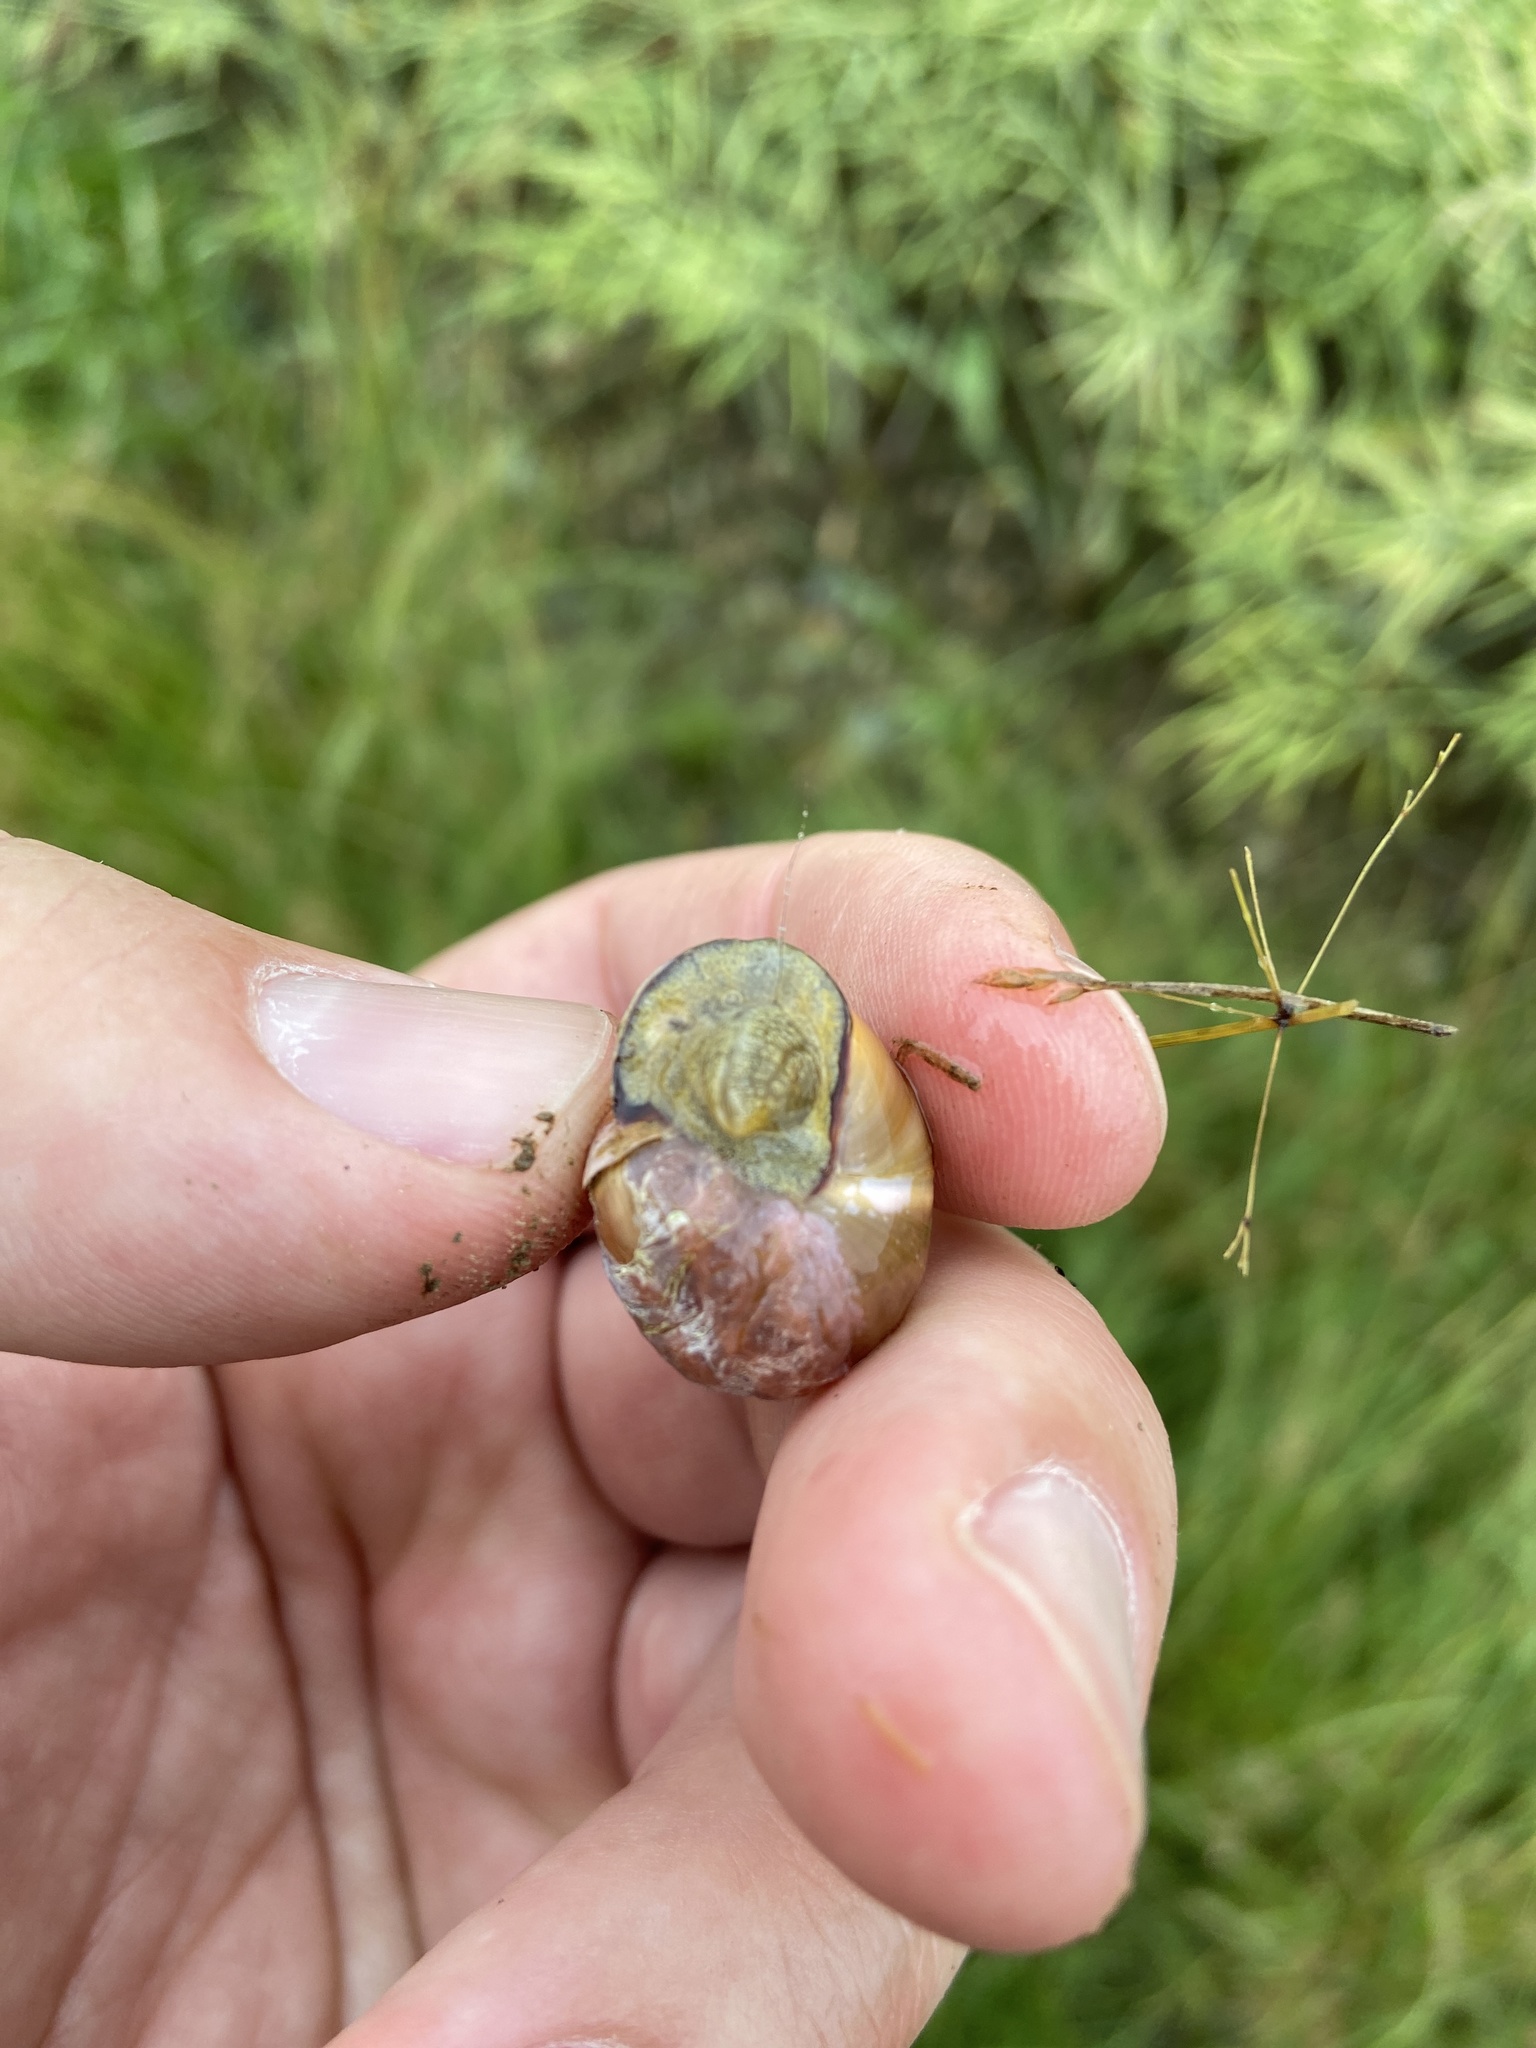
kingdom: Animalia
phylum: Mollusca
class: Gastropoda
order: Stylommatophora
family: Helicidae
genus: Cepaea
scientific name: Cepaea nemoralis
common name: Grovesnail
